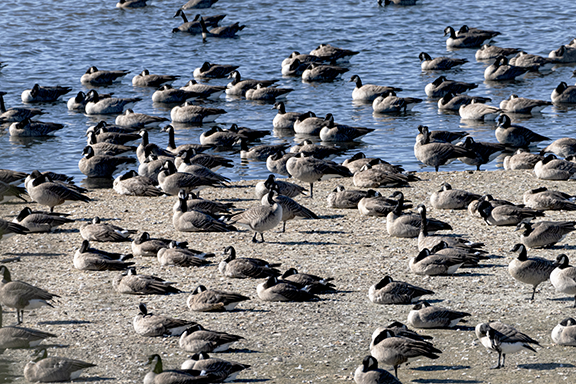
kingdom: Animalia
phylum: Chordata
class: Aves
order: Anseriformes
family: Anatidae
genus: Branta
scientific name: Branta canadensis
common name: Canada goose
